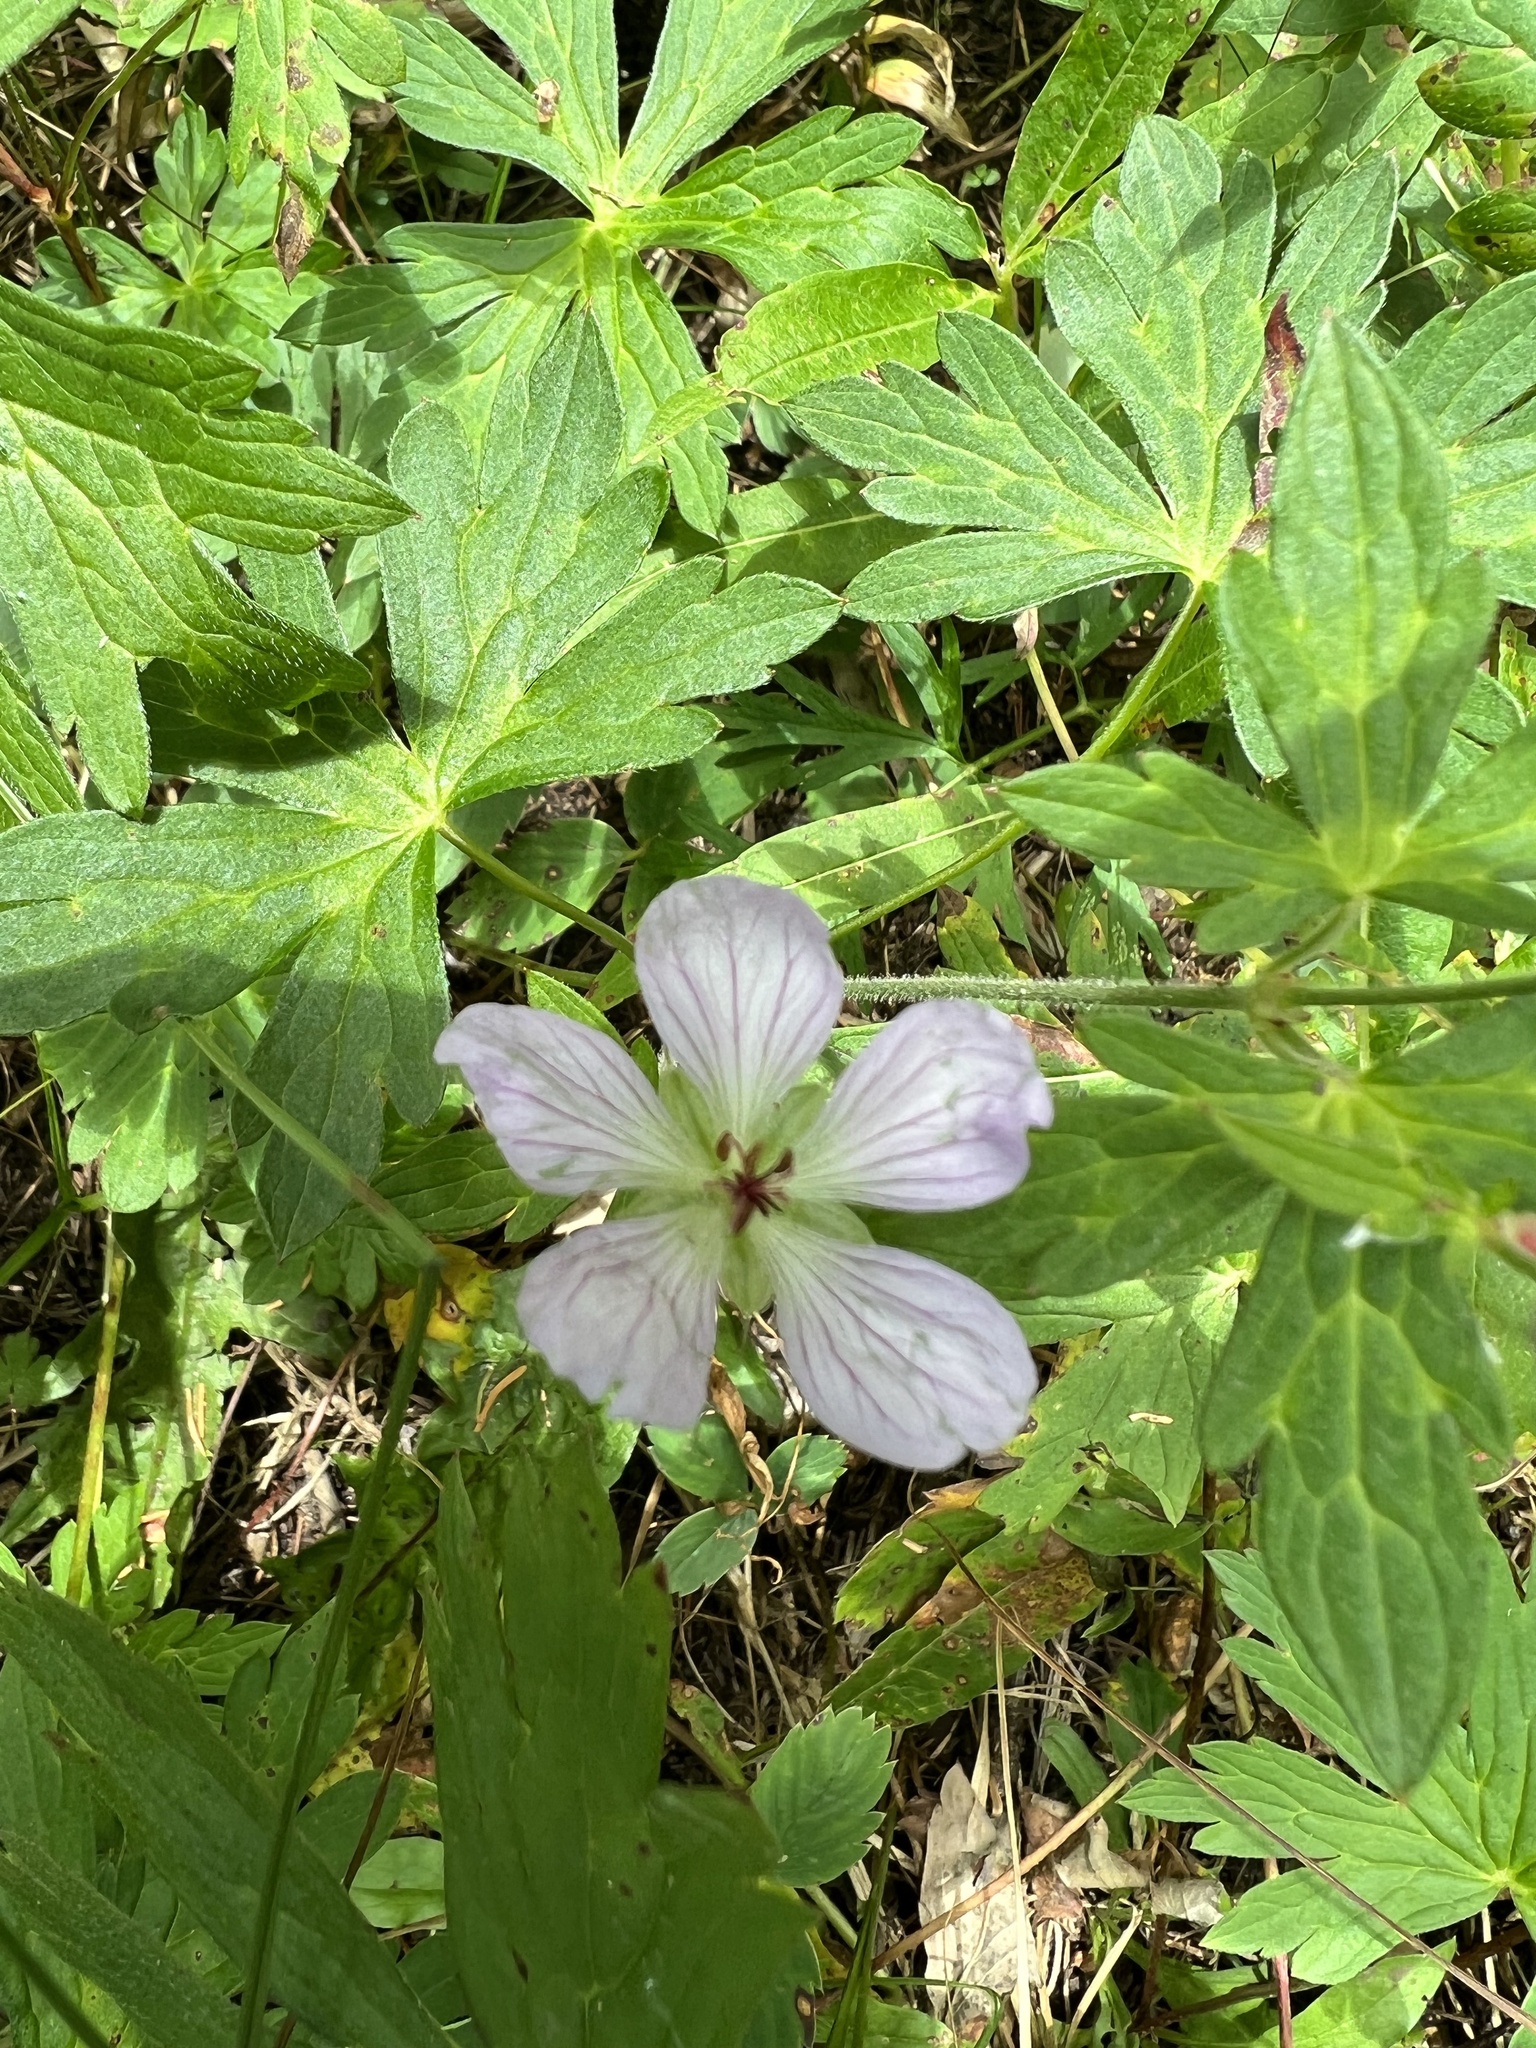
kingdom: Plantae
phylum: Tracheophyta
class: Magnoliopsida
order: Geraniales
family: Geraniaceae
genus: Geranium
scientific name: Geranium richardsonii
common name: Richardson's crane's-bill
